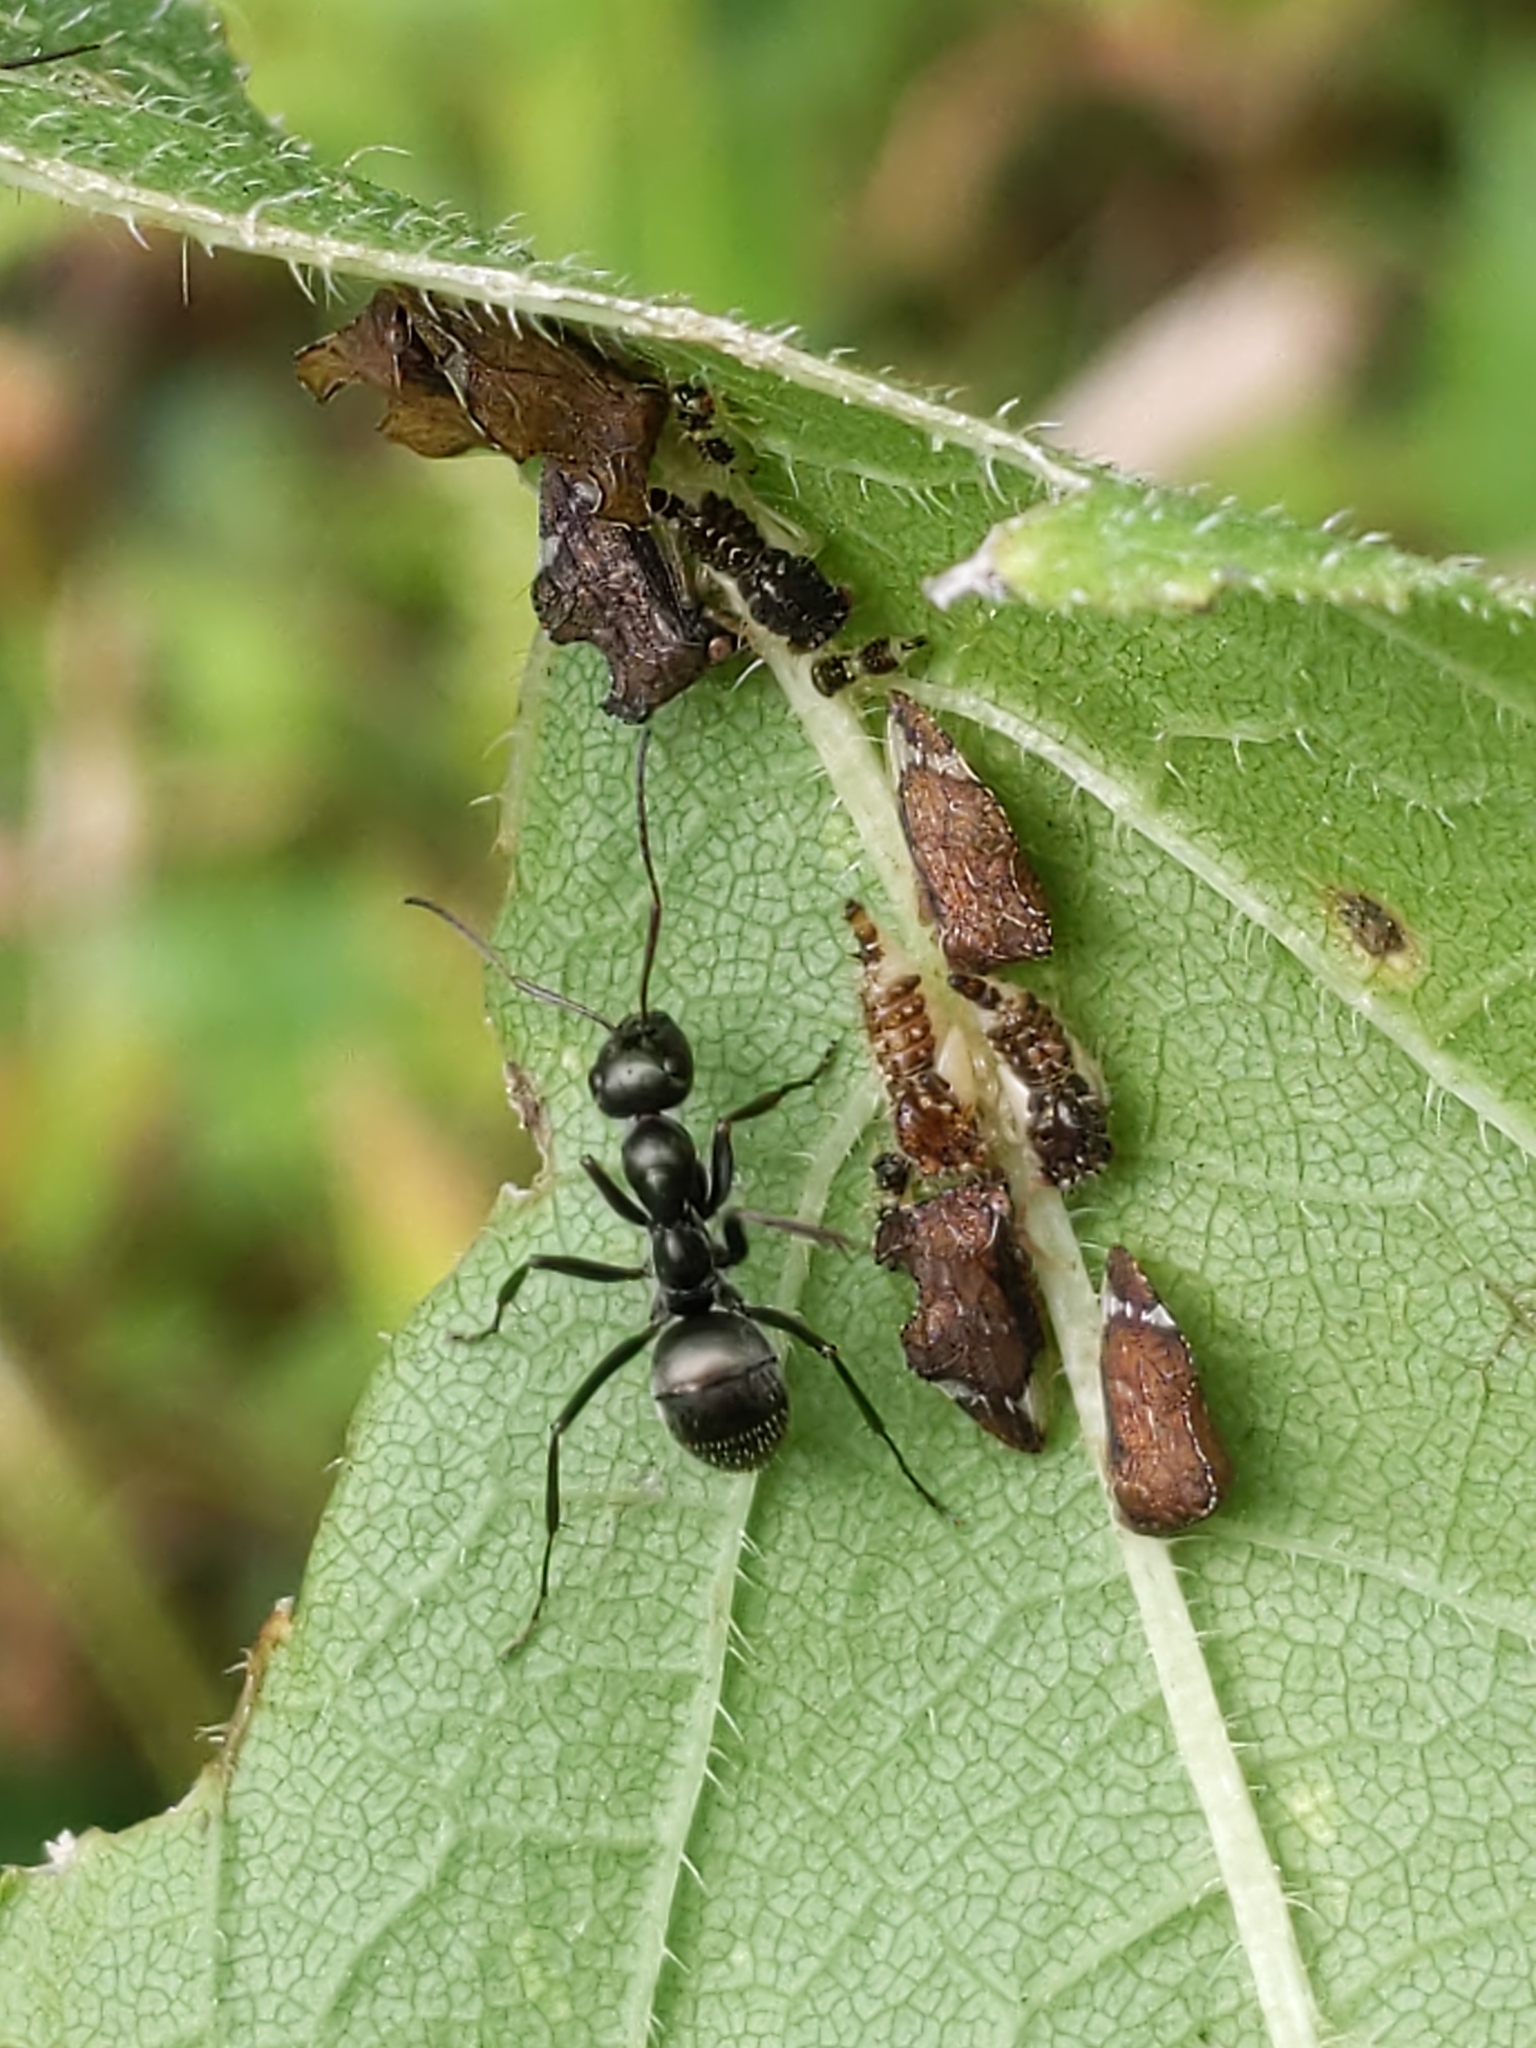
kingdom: Animalia
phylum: Arthropoda
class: Insecta
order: Hemiptera
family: Membracidae
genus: Entylia
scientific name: Entylia carinata
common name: Keeled treehopper
